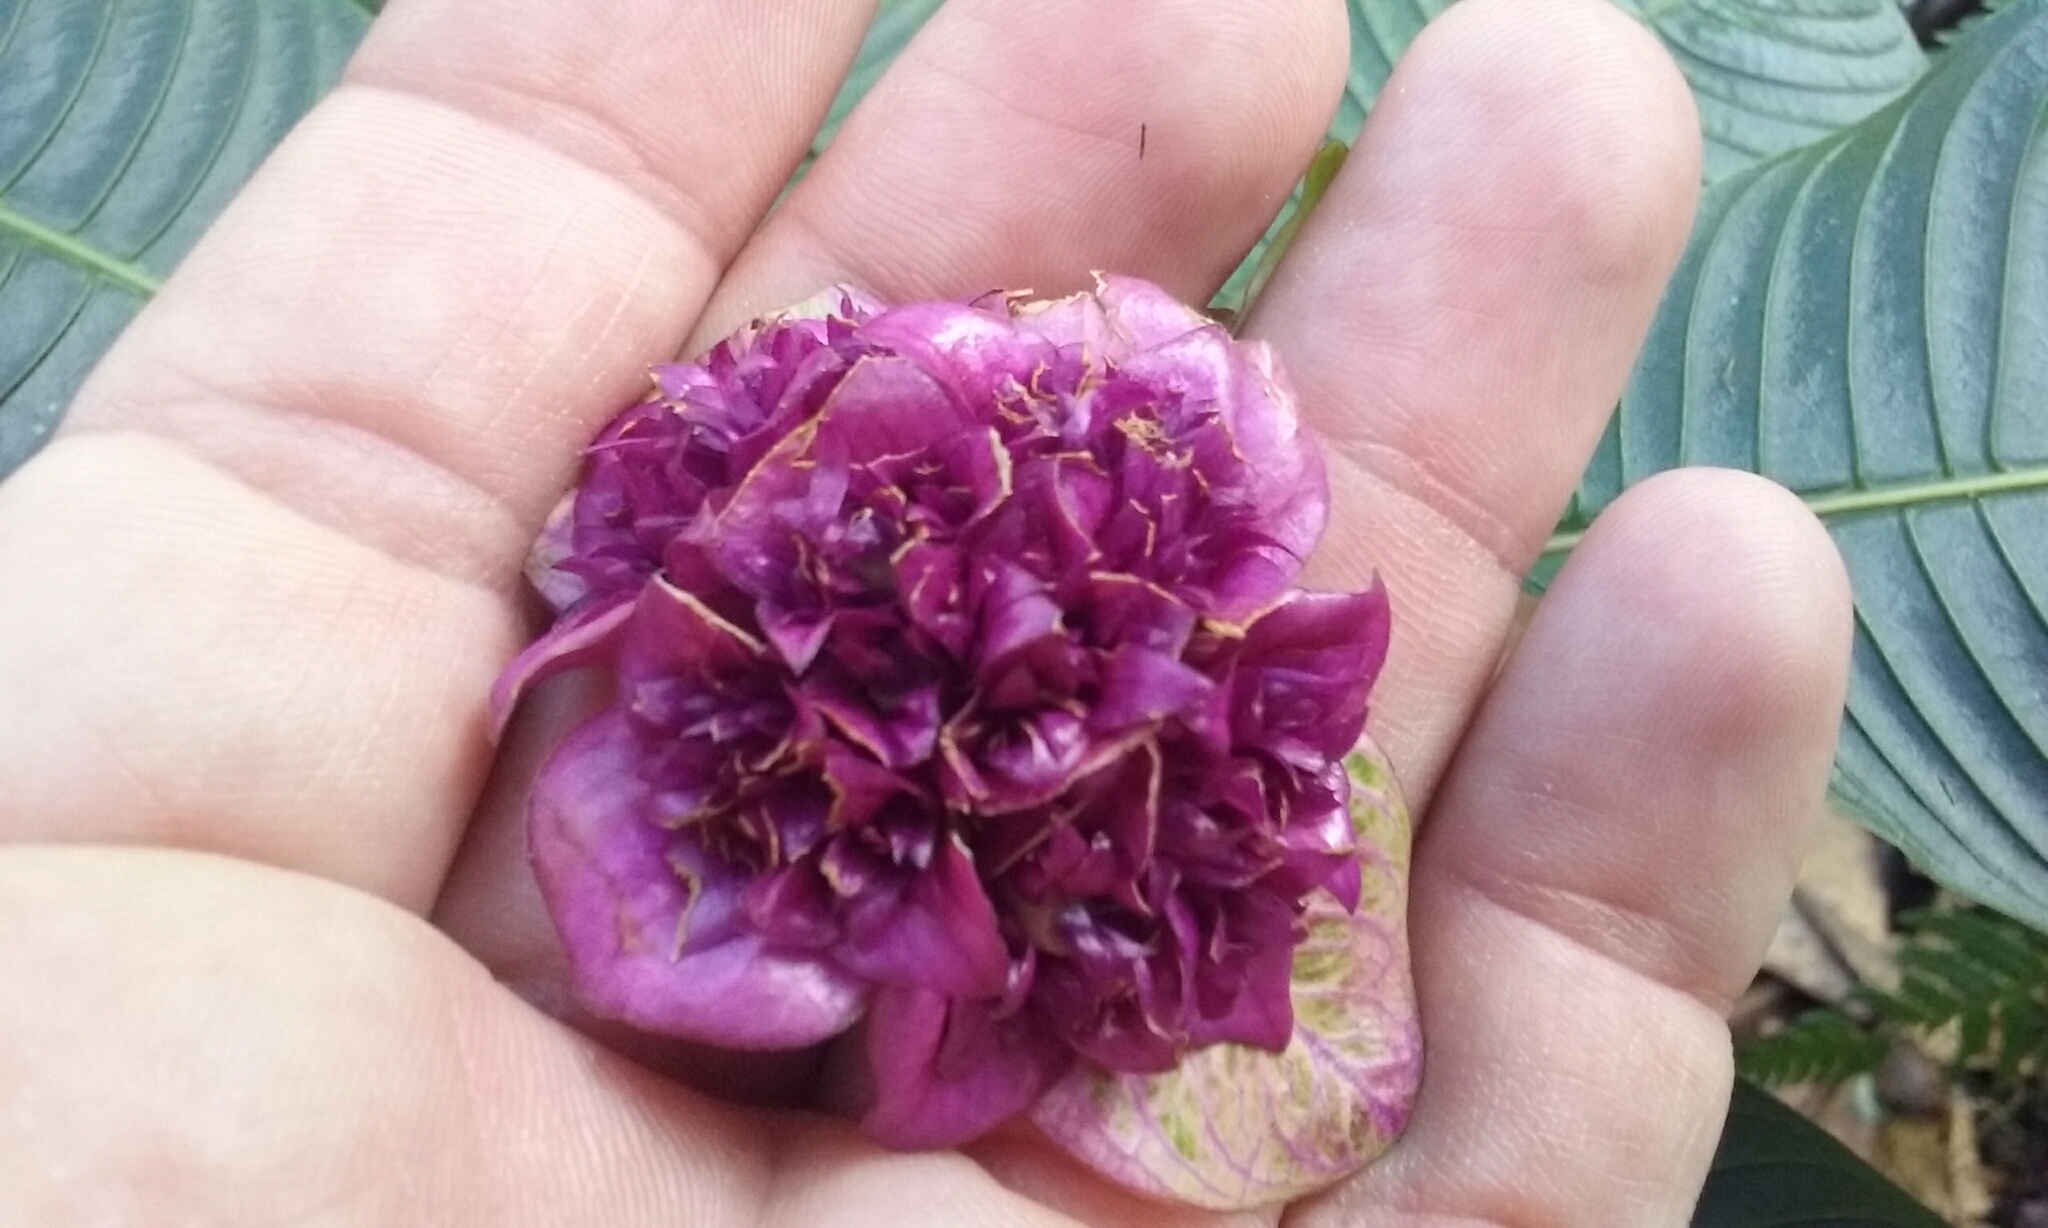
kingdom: Plantae
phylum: Tracheophyta
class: Magnoliopsida
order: Gentianales
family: Rubiaceae
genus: Palicourea
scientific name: Palicourea chiriquiensis
